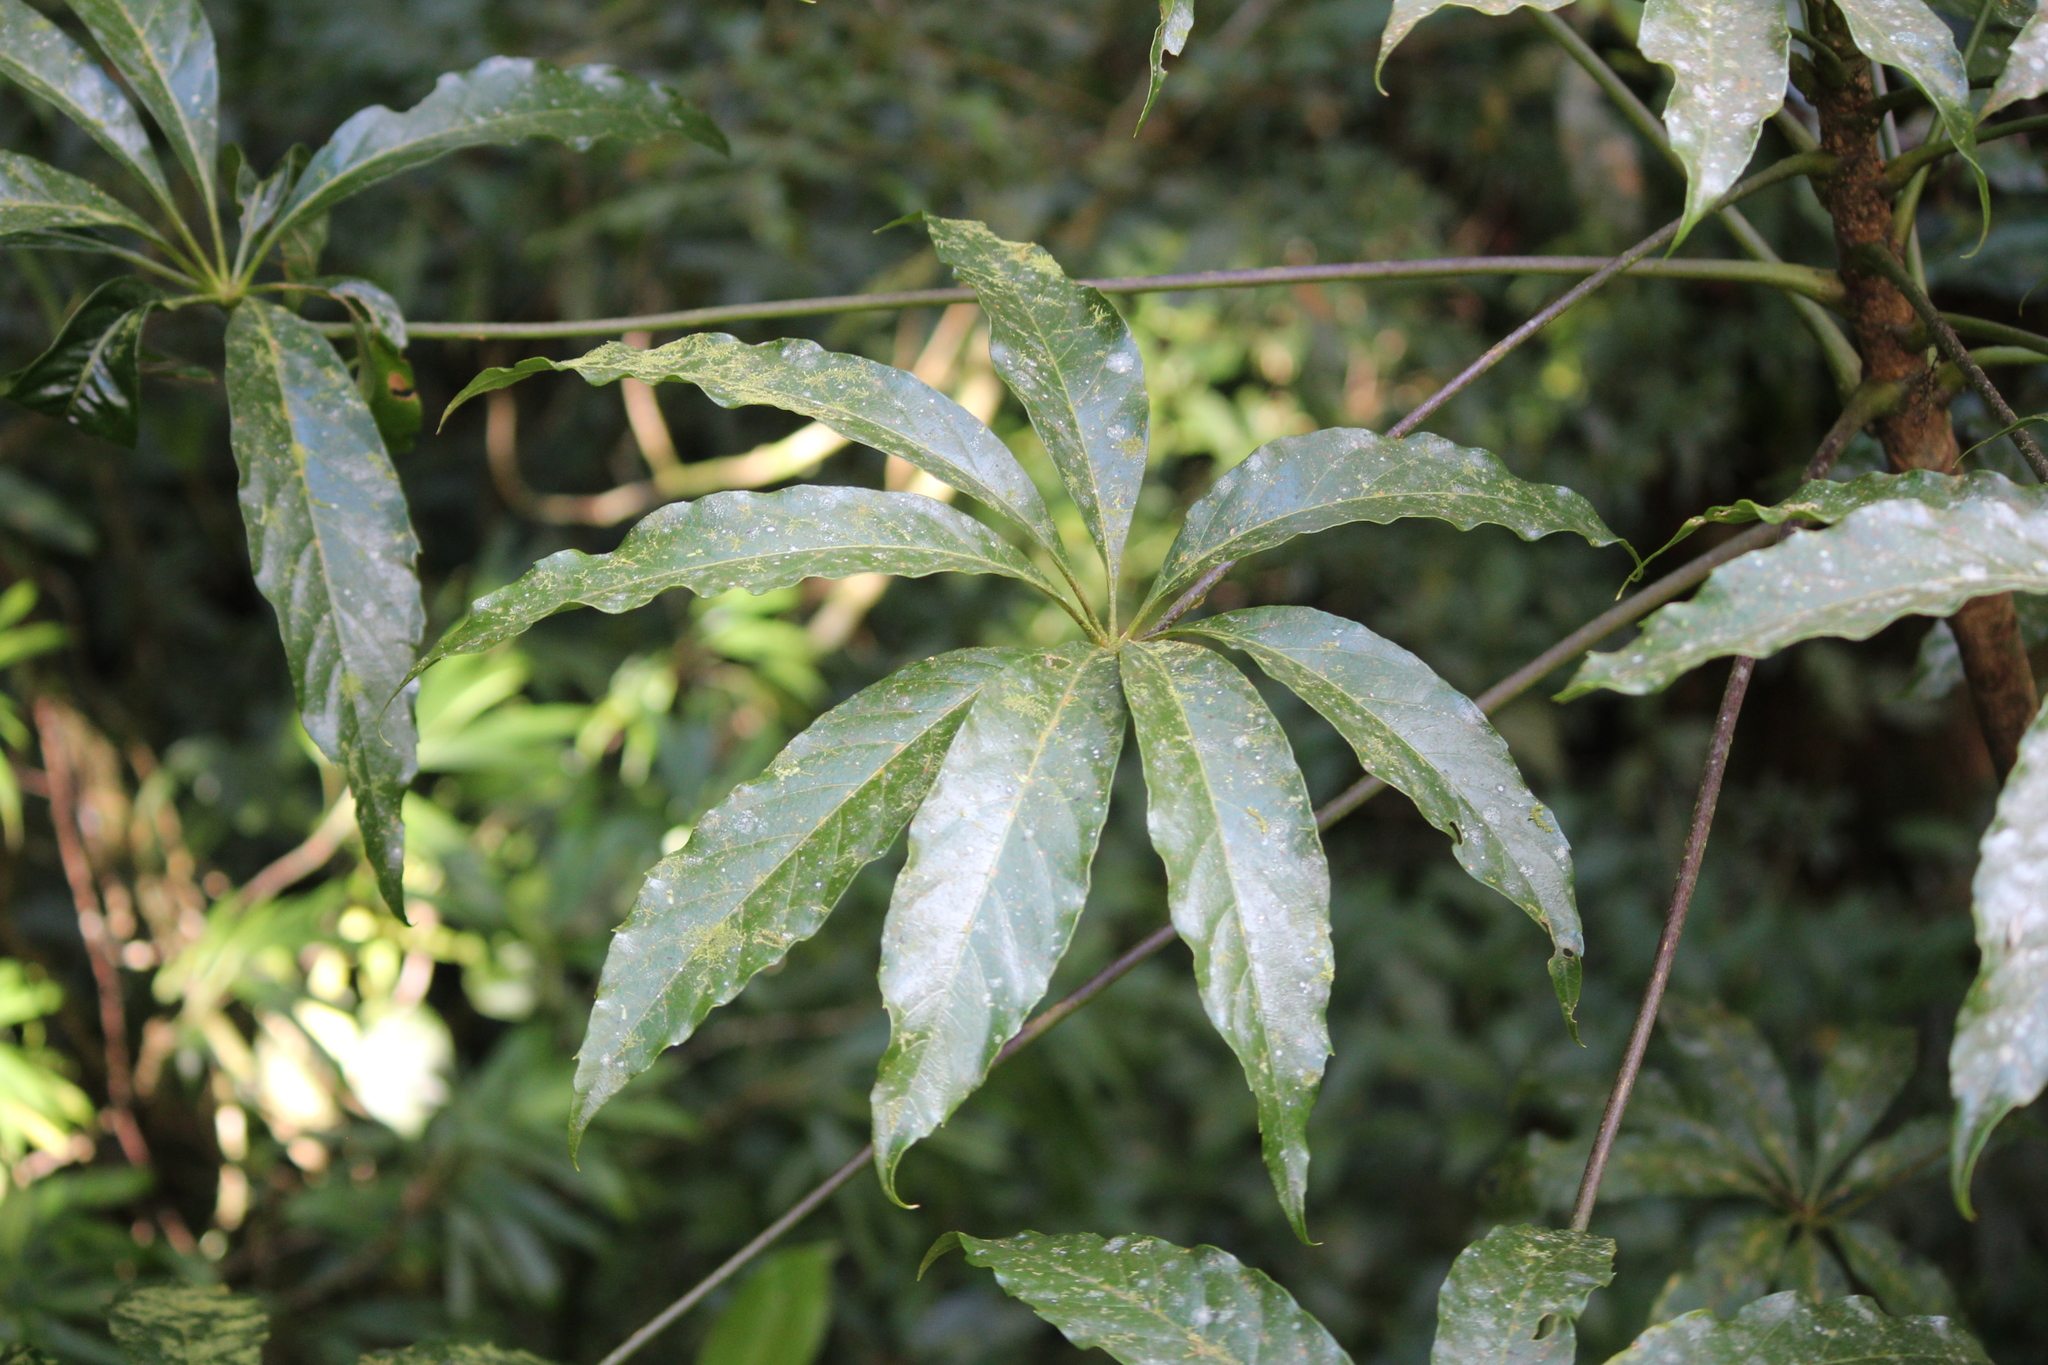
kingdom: Plantae
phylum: Tracheophyta
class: Magnoliopsida
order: Apiales
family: Araliaceae
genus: Oreopanax
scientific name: Oreopanax xalapensis
